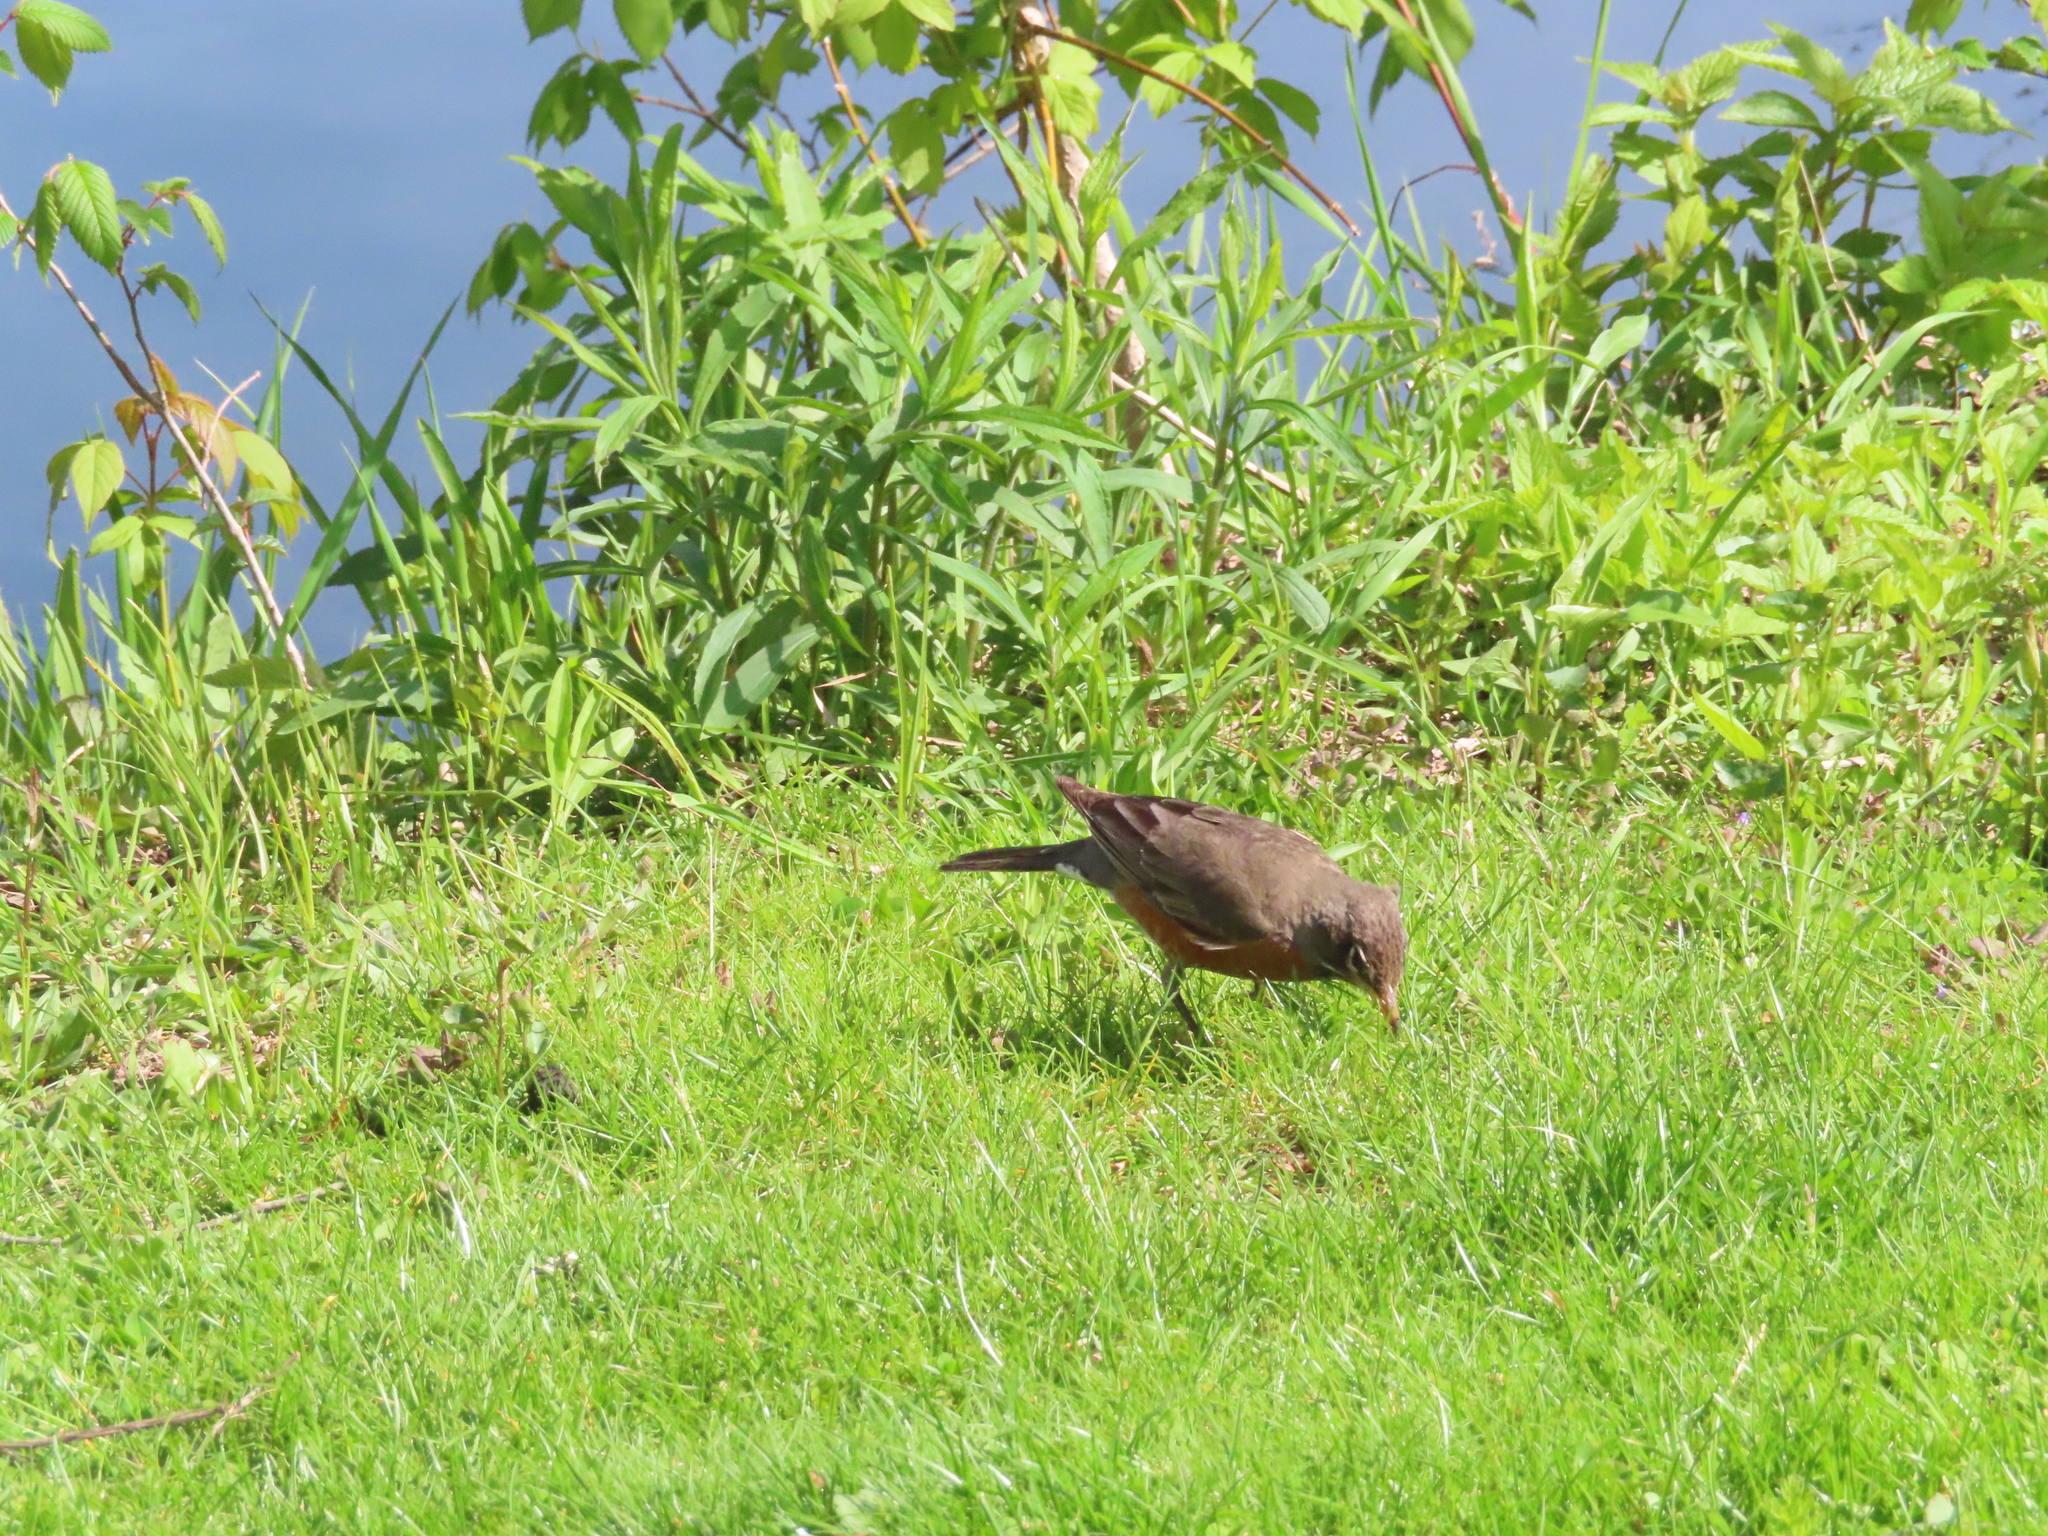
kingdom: Animalia
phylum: Chordata
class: Aves
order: Passeriformes
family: Turdidae
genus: Turdus
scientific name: Turdus migratorius
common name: American robin
